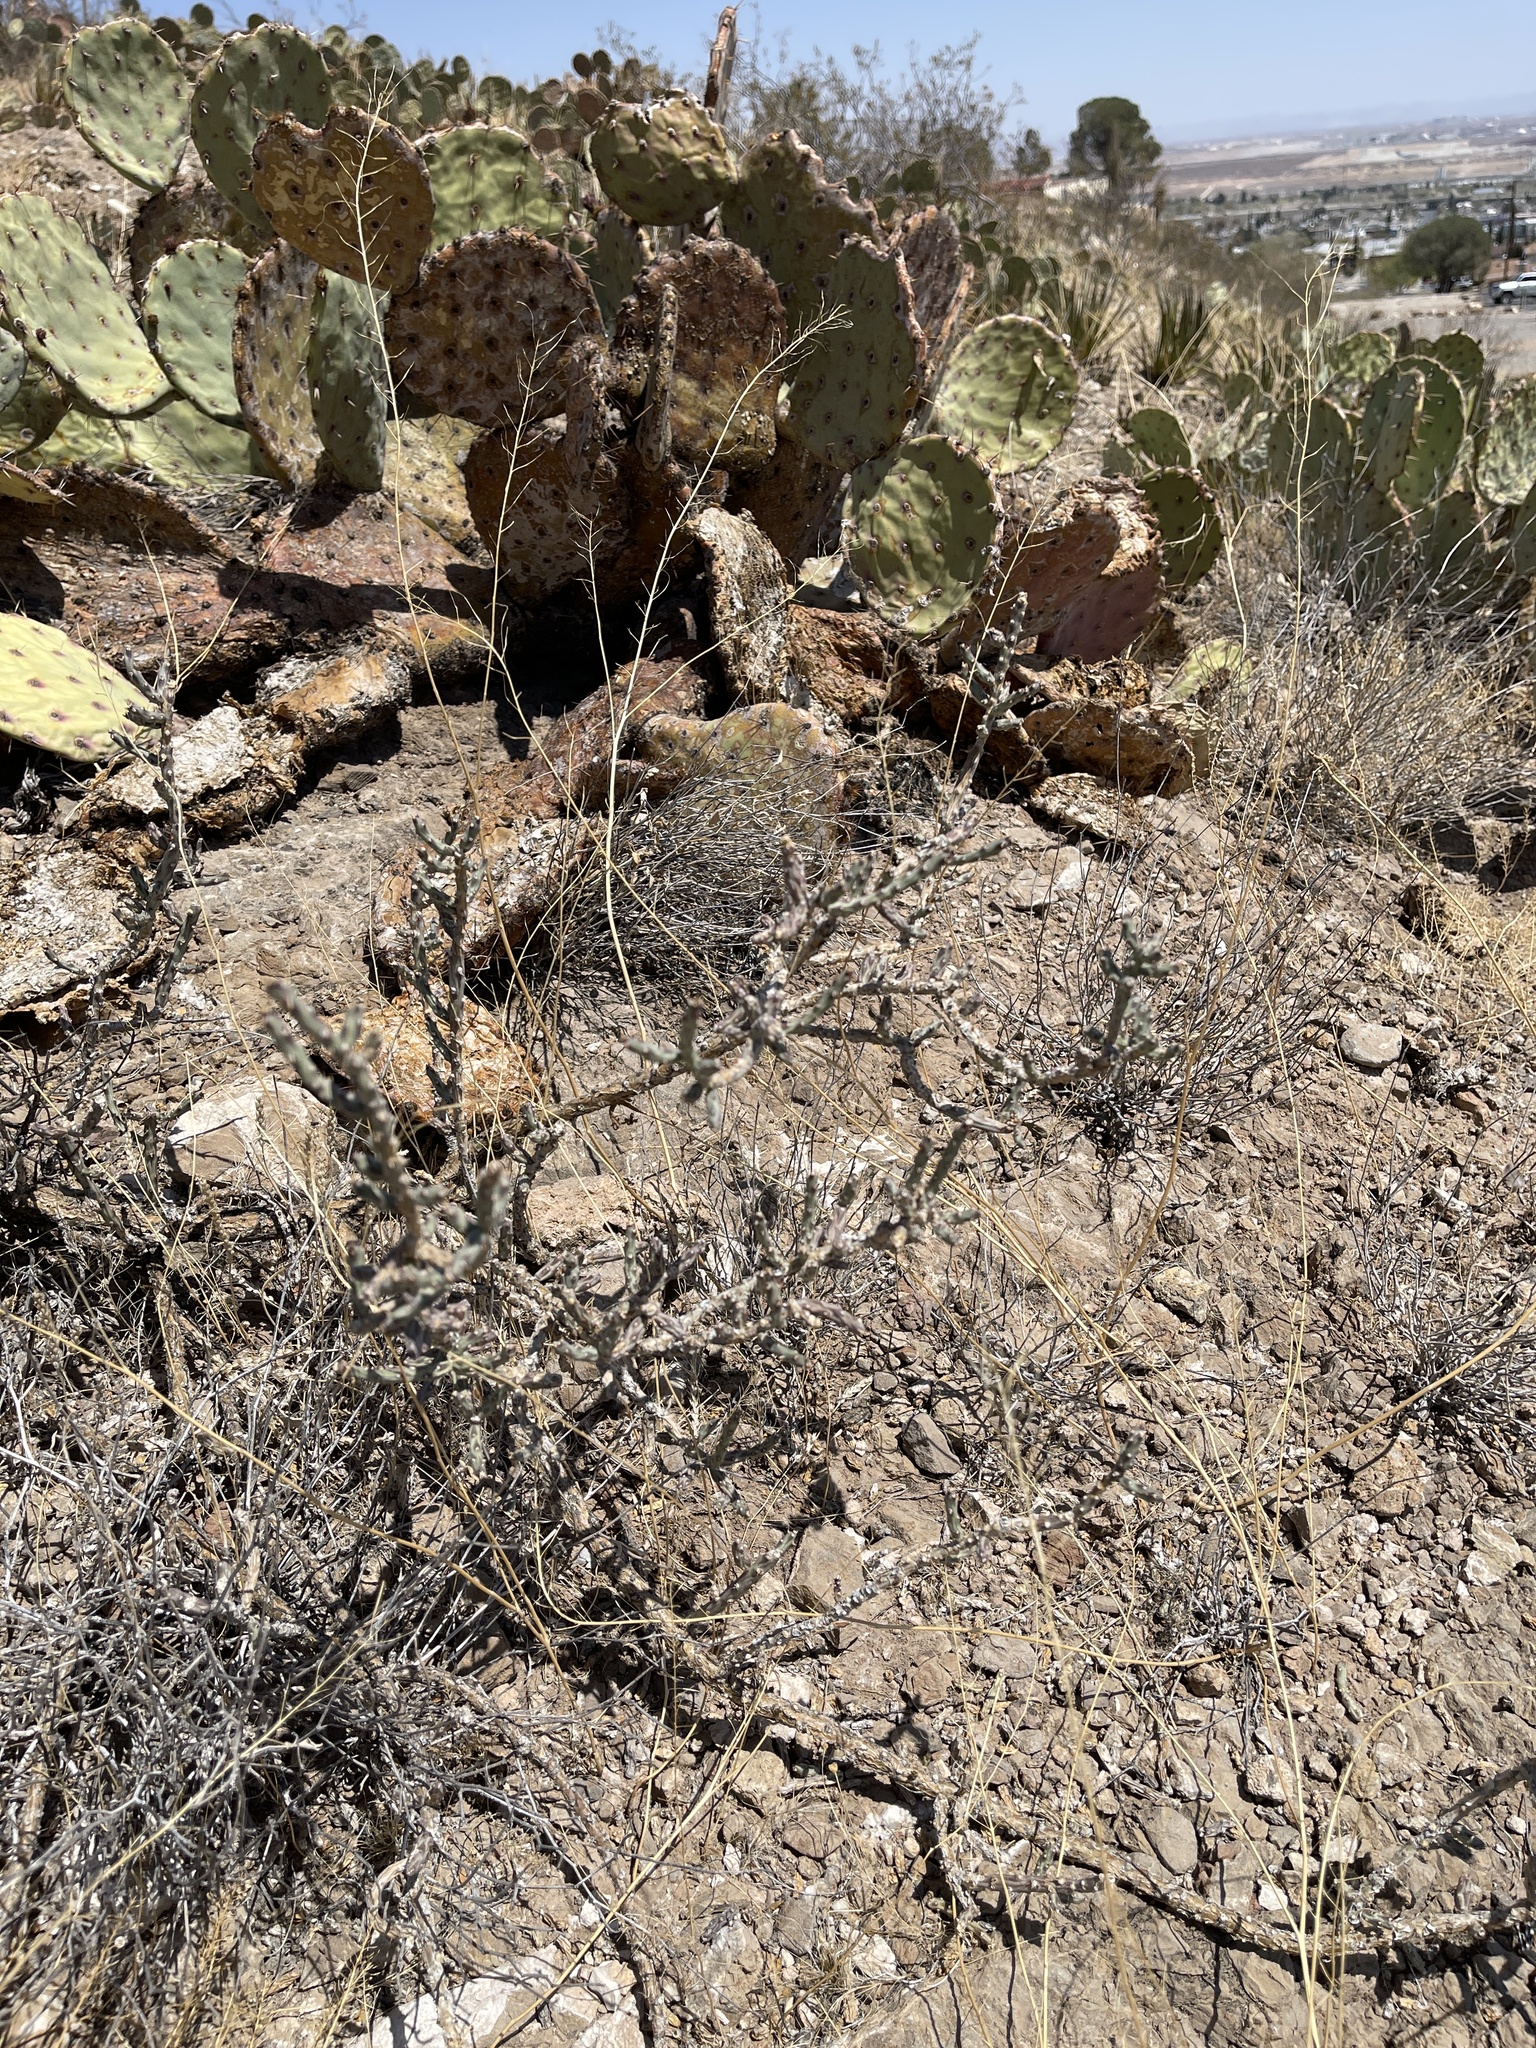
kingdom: Plantae
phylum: Tracheophyta
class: Magnoliopsida
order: Caryophyllales
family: Cactaceae
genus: Cylindropuntia
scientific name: Cylindropuntia leptocaulis
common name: Christmas cactus
